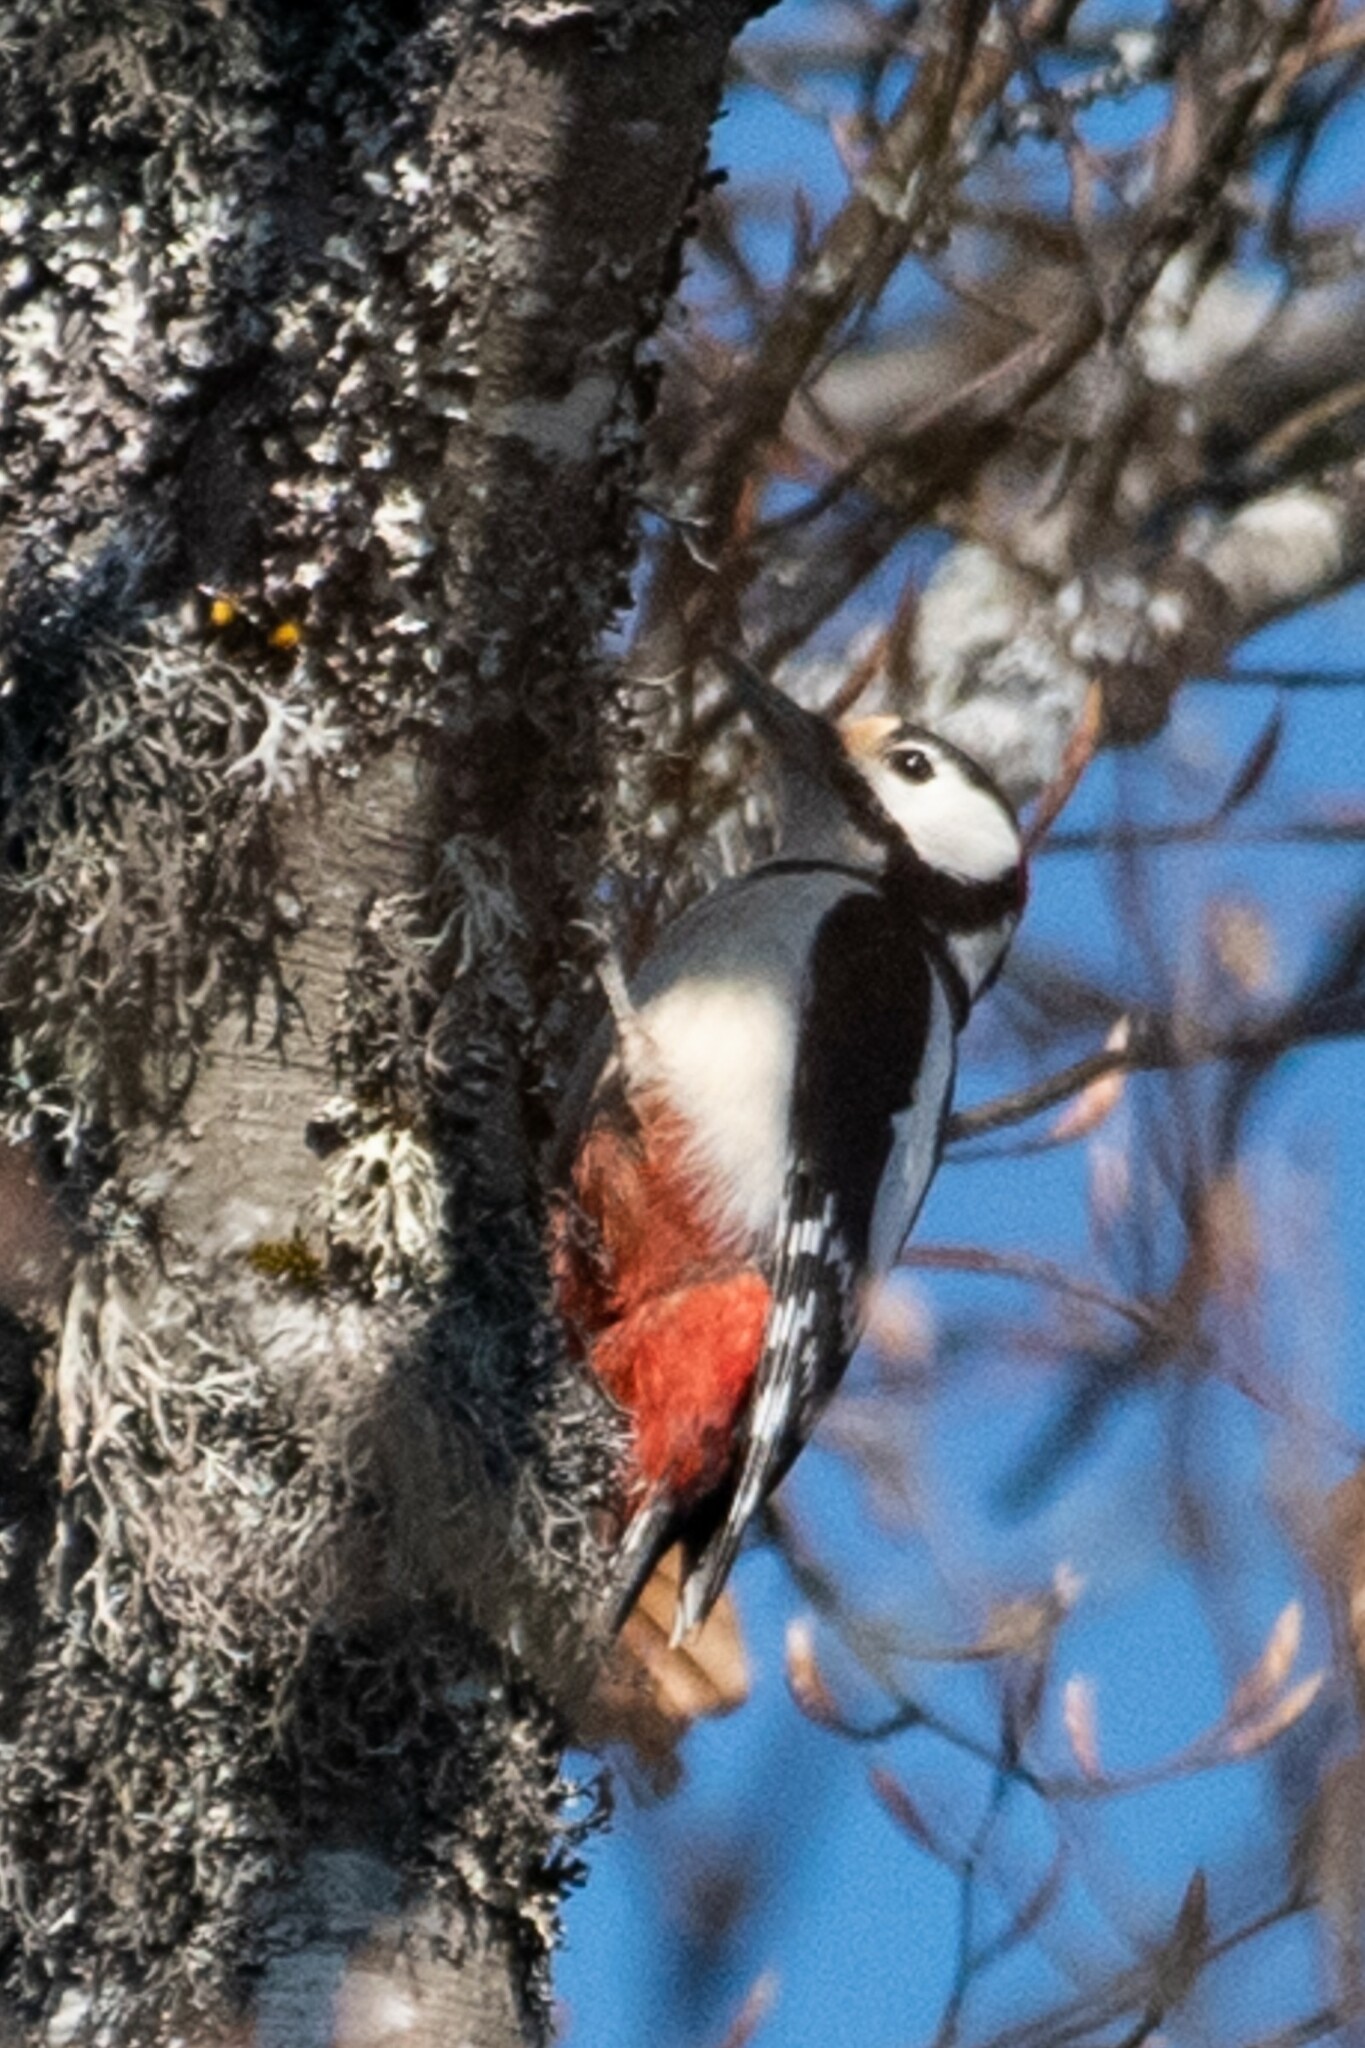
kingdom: Animalia
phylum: Chordata
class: Aves
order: Piciformes
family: Picidae
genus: Dendrocopos
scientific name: Dendrocopos major
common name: Great spotted woodpecker
